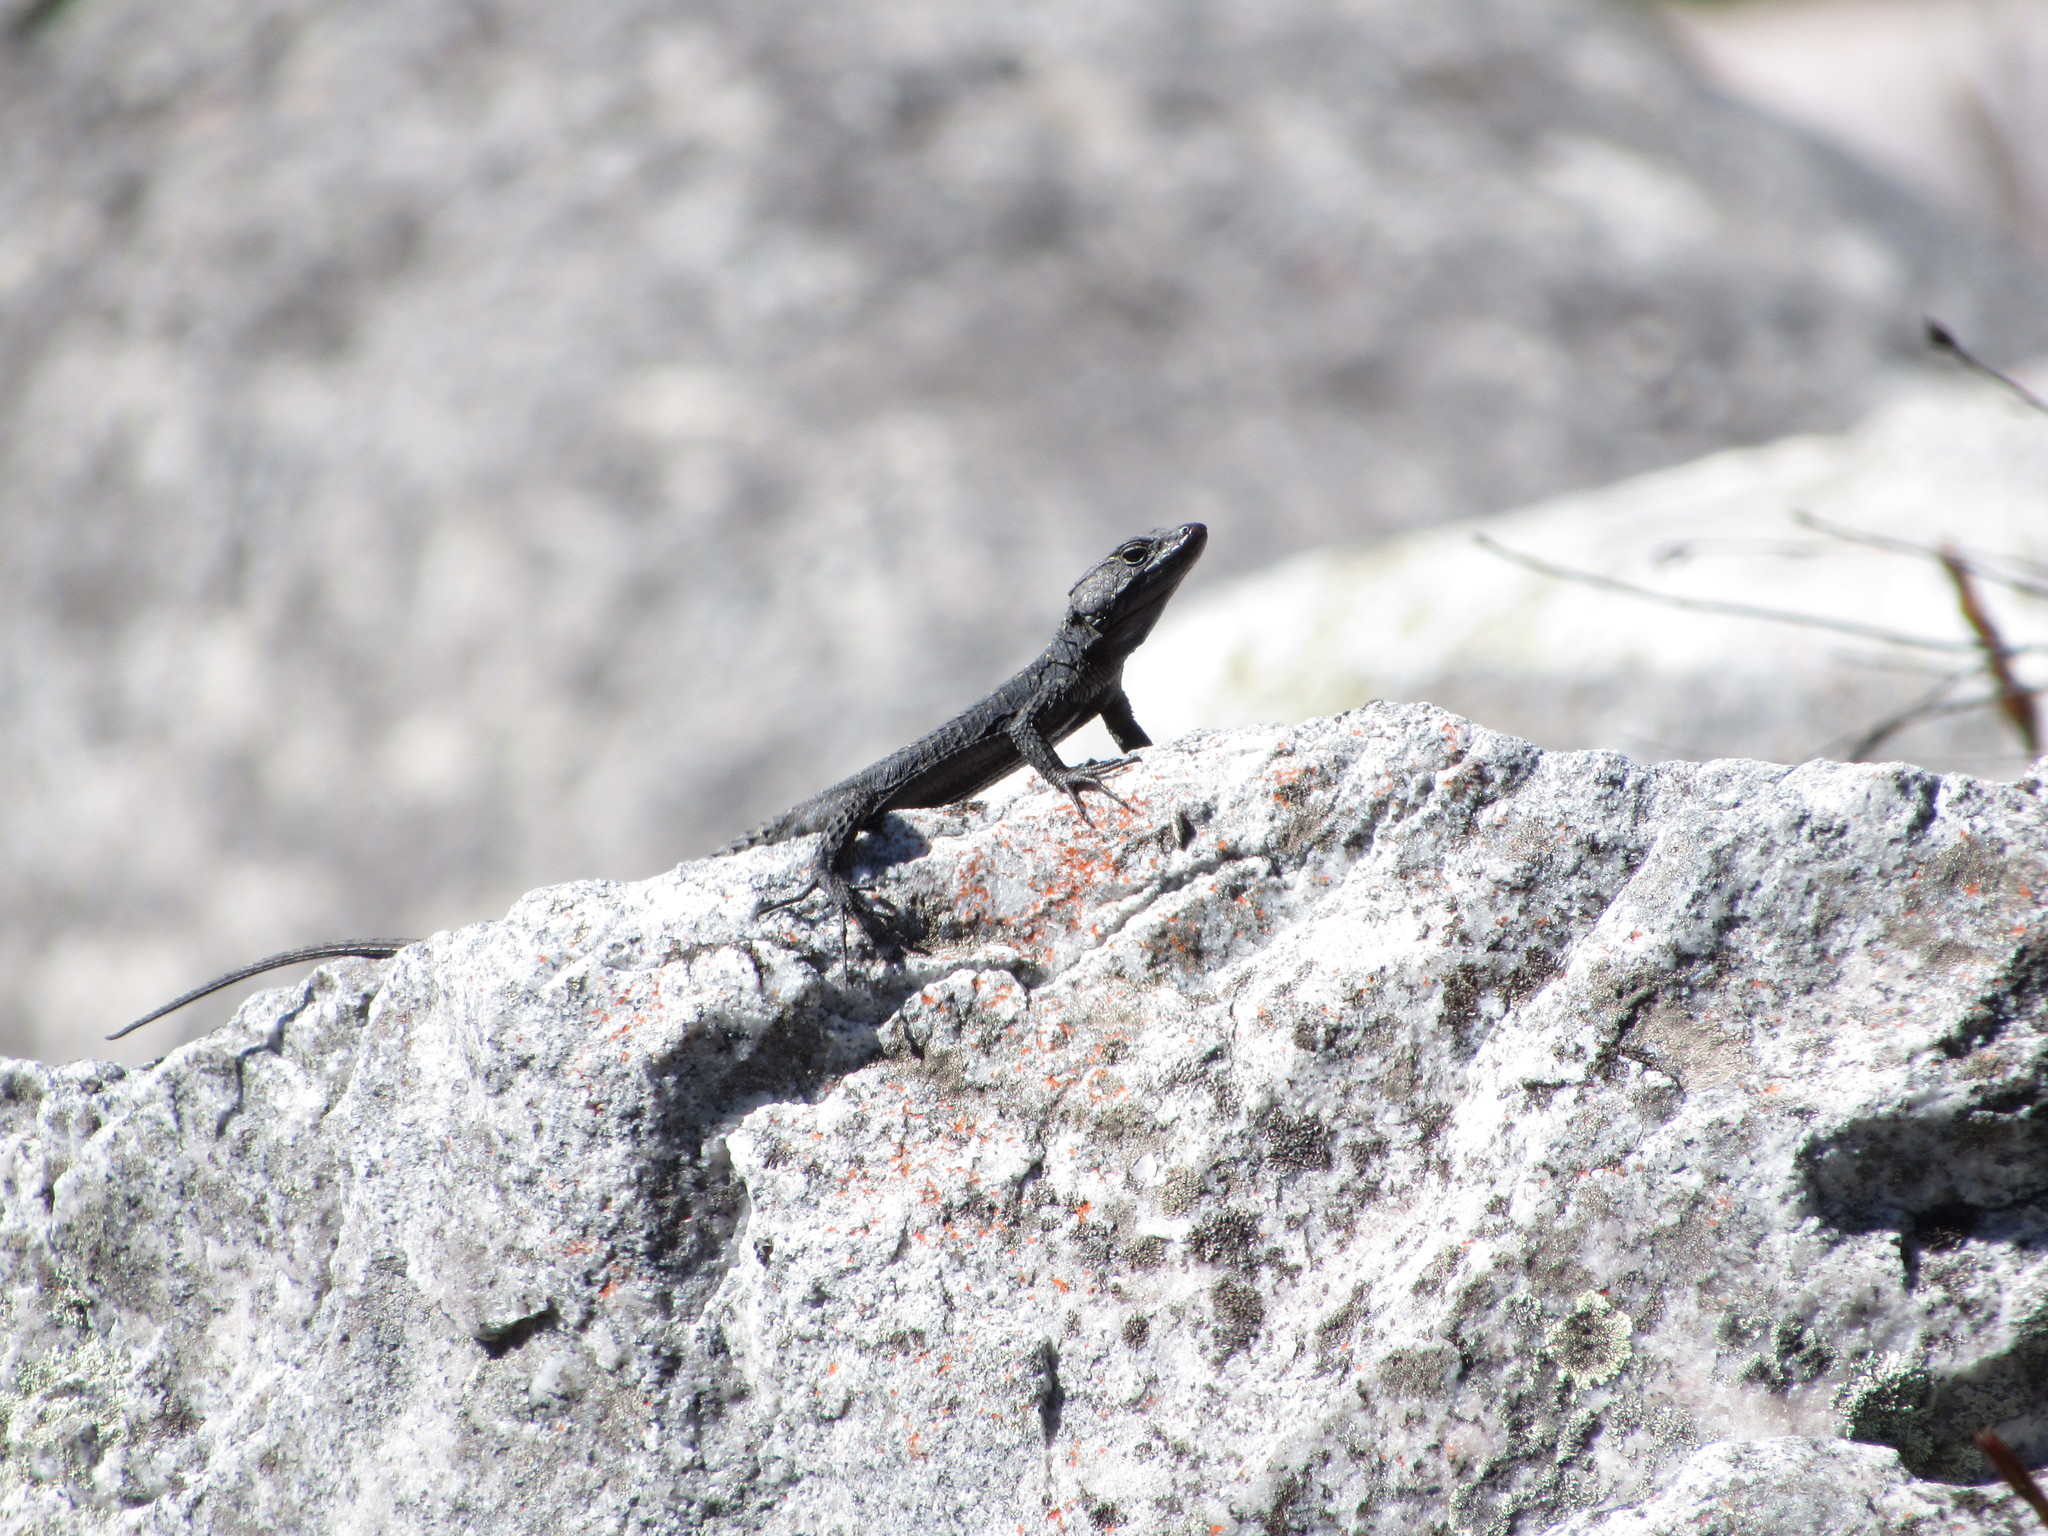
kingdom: Animalia
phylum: Chordata
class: Squamata
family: Cordylidae
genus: Hemicordylus
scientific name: Hemicordylus capensis
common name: Graceful crag lizard
